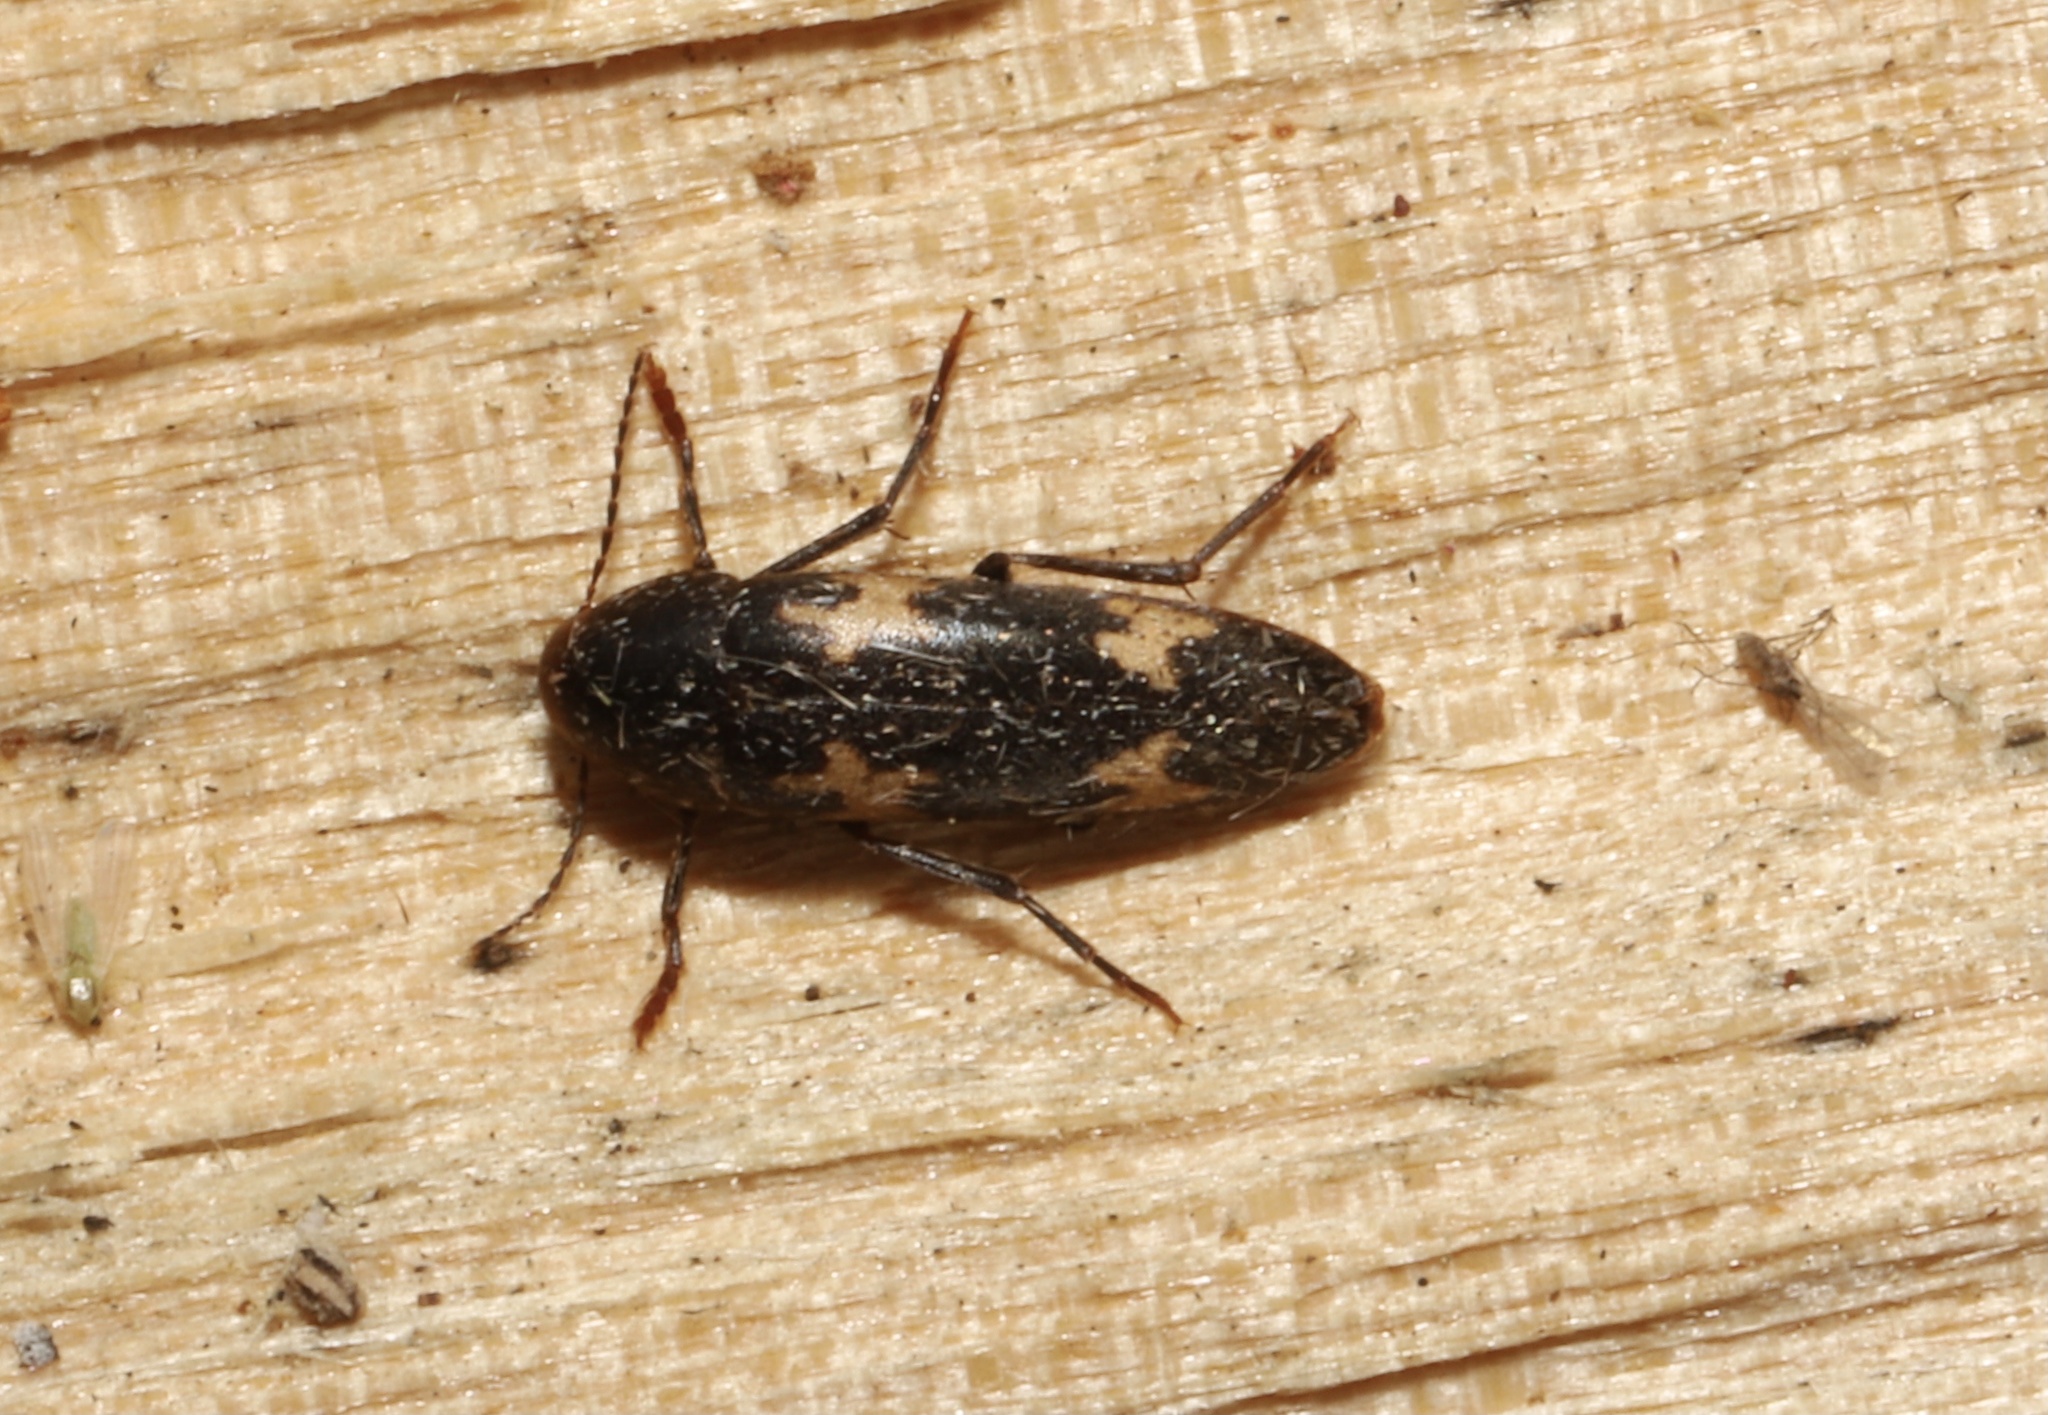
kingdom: Animalia
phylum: Arthropoda
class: Insecta
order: Coleoptera
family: Melandryidae
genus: Dircaea
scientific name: Dircaea liturata
